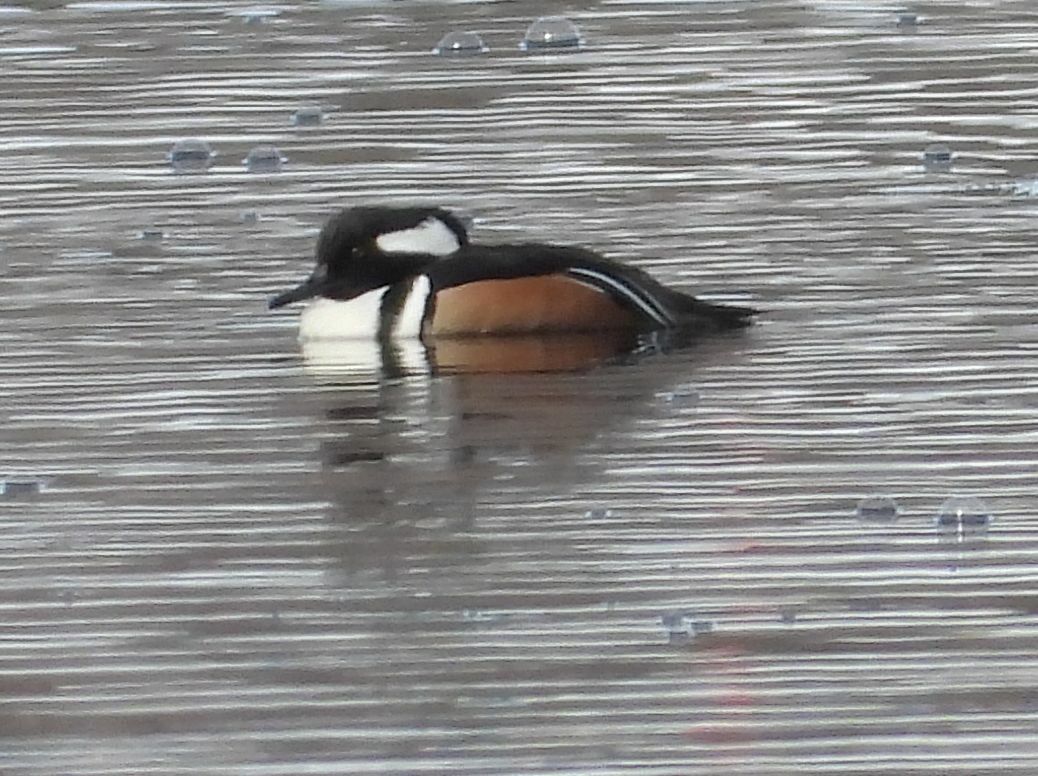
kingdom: Animalia
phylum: Chordata
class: Aves
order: Anseriformes
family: Anatidae
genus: Lophodytes
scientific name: Lophodytes cucullatus
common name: Hooded merganser
